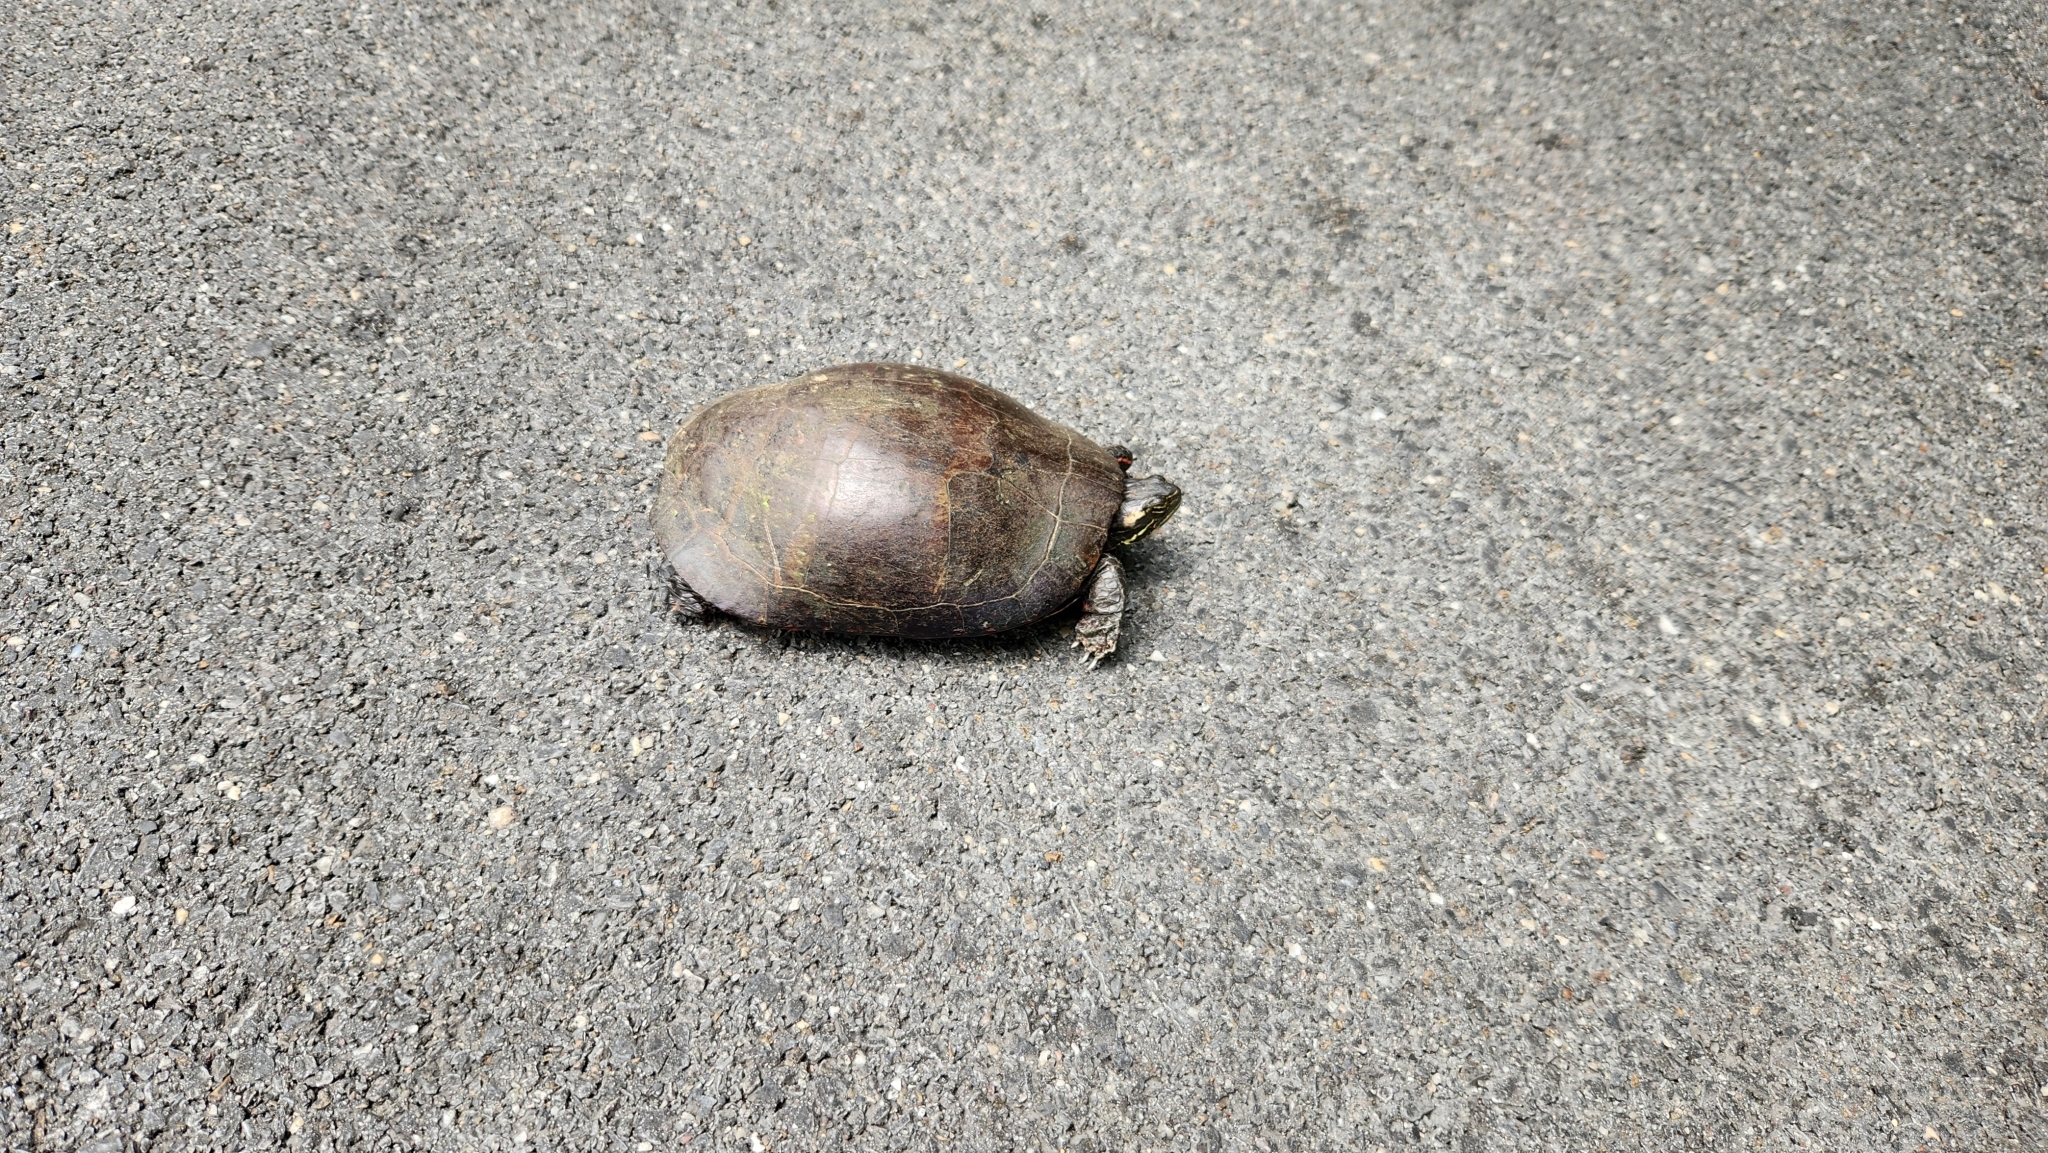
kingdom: Animalia
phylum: Chordata
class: Testudines
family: Emydidae
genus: Chrysemys
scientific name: Chrysemys picta
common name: Painted turtle
